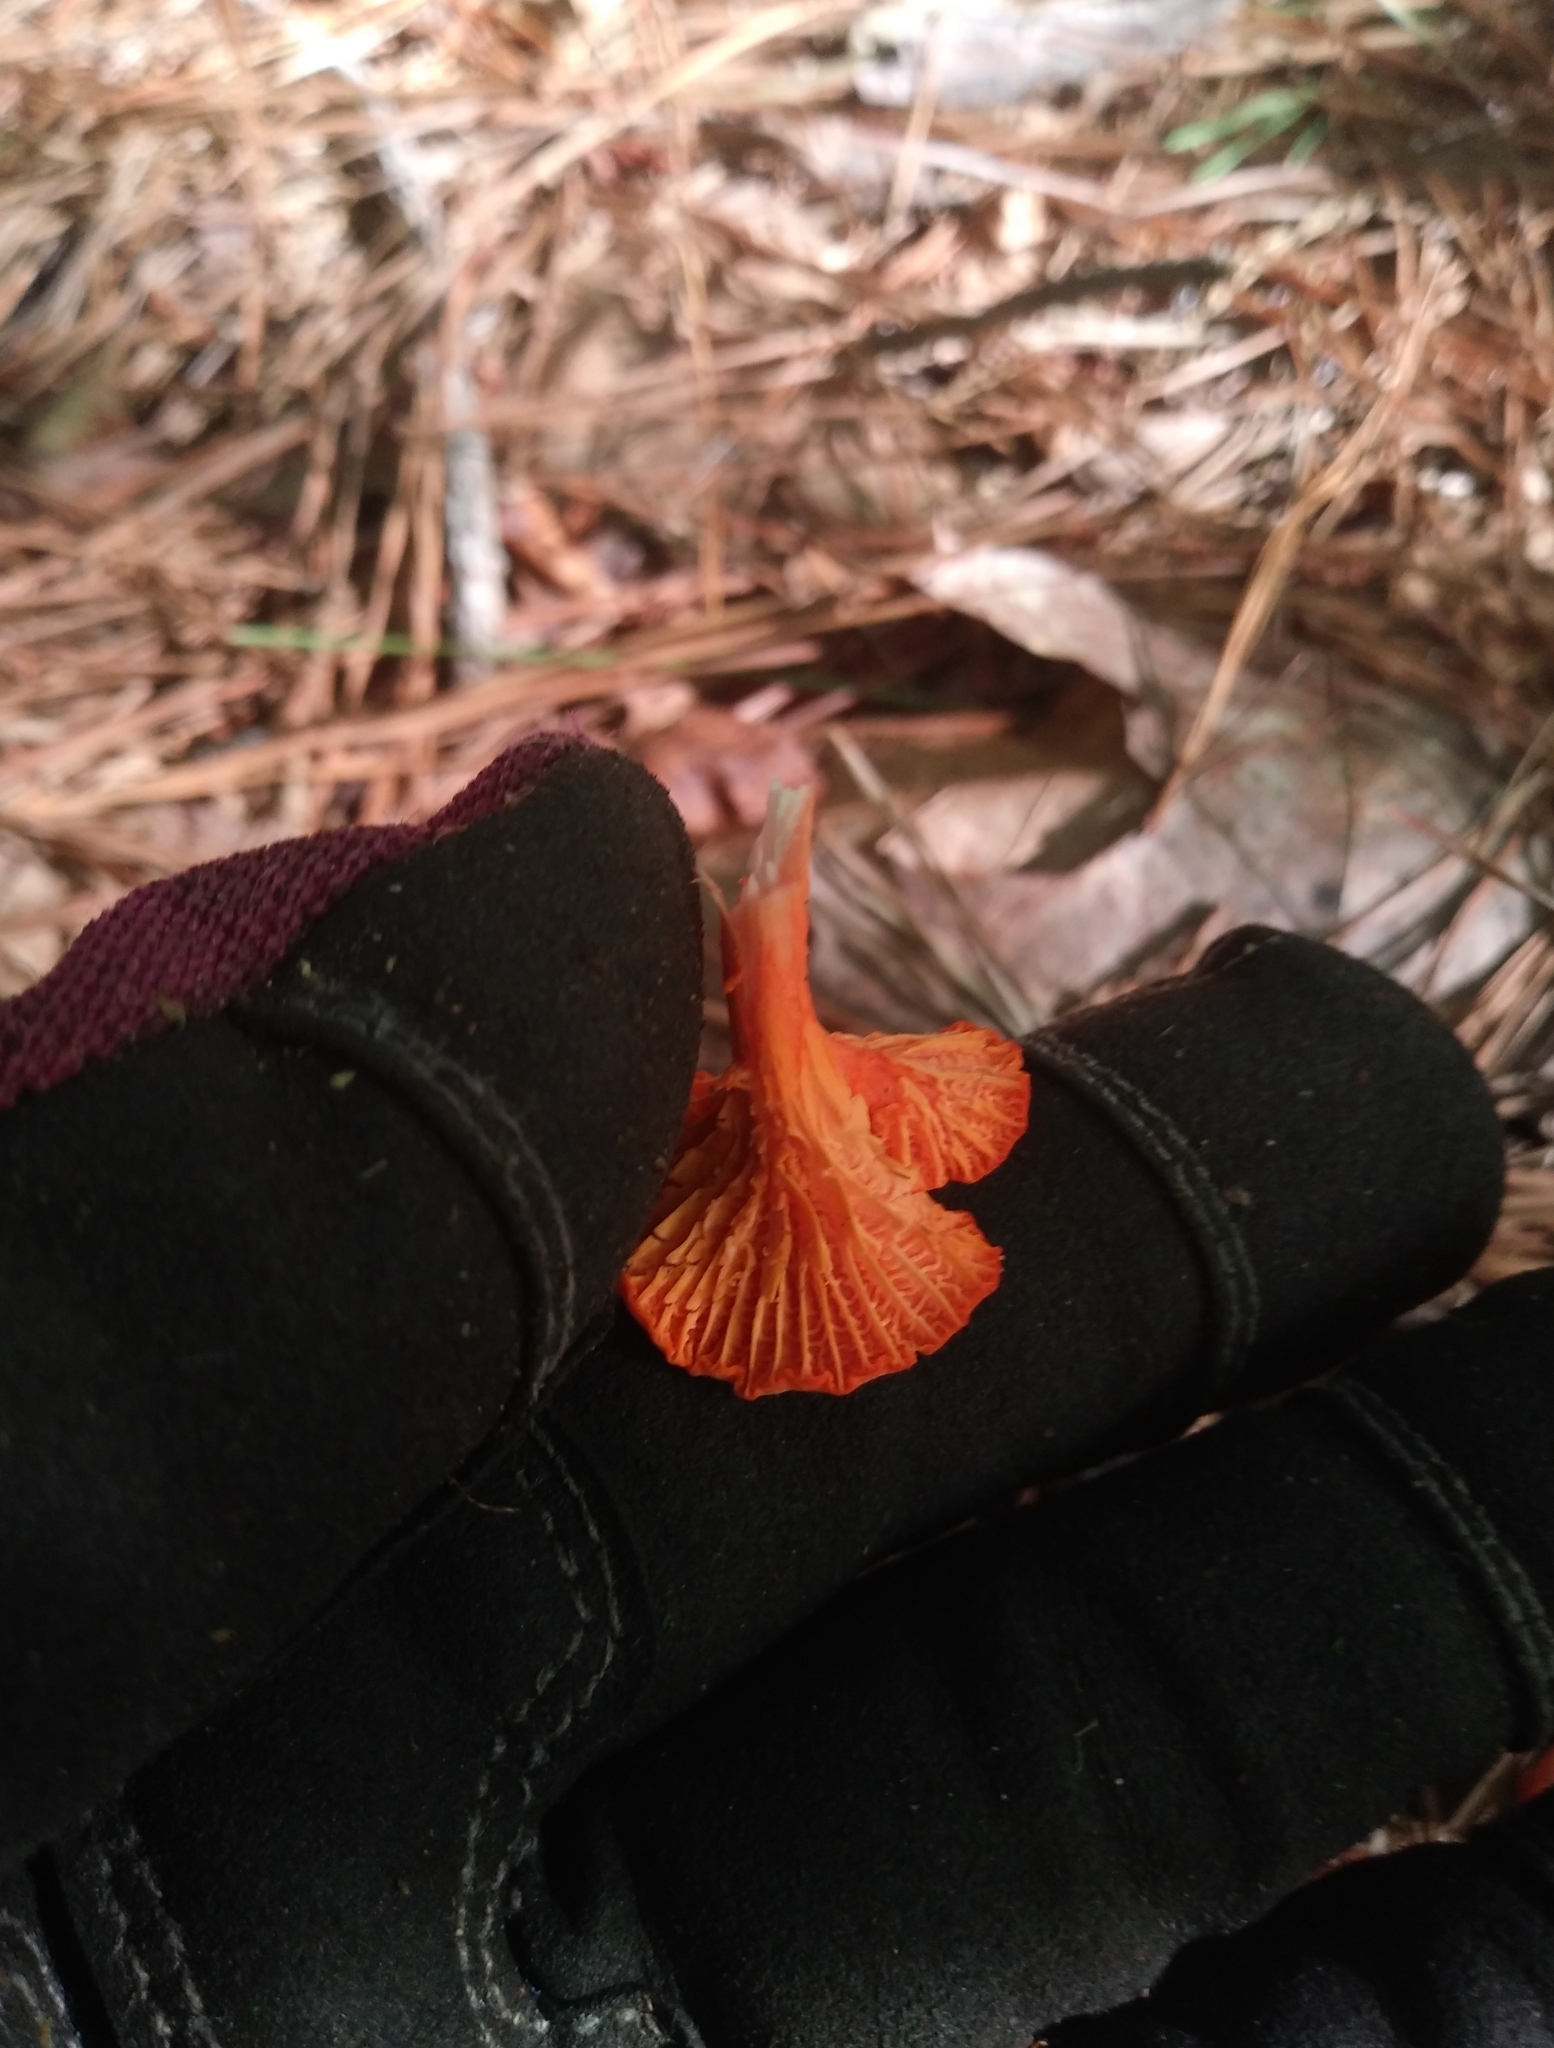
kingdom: Fungi
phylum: Basidiomycota
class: Agaricomycetes
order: Cantharellales
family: Hydnaceae
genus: Cantharellus
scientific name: Cantharellus cinnabarinus
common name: Cinnabar chanterelle
